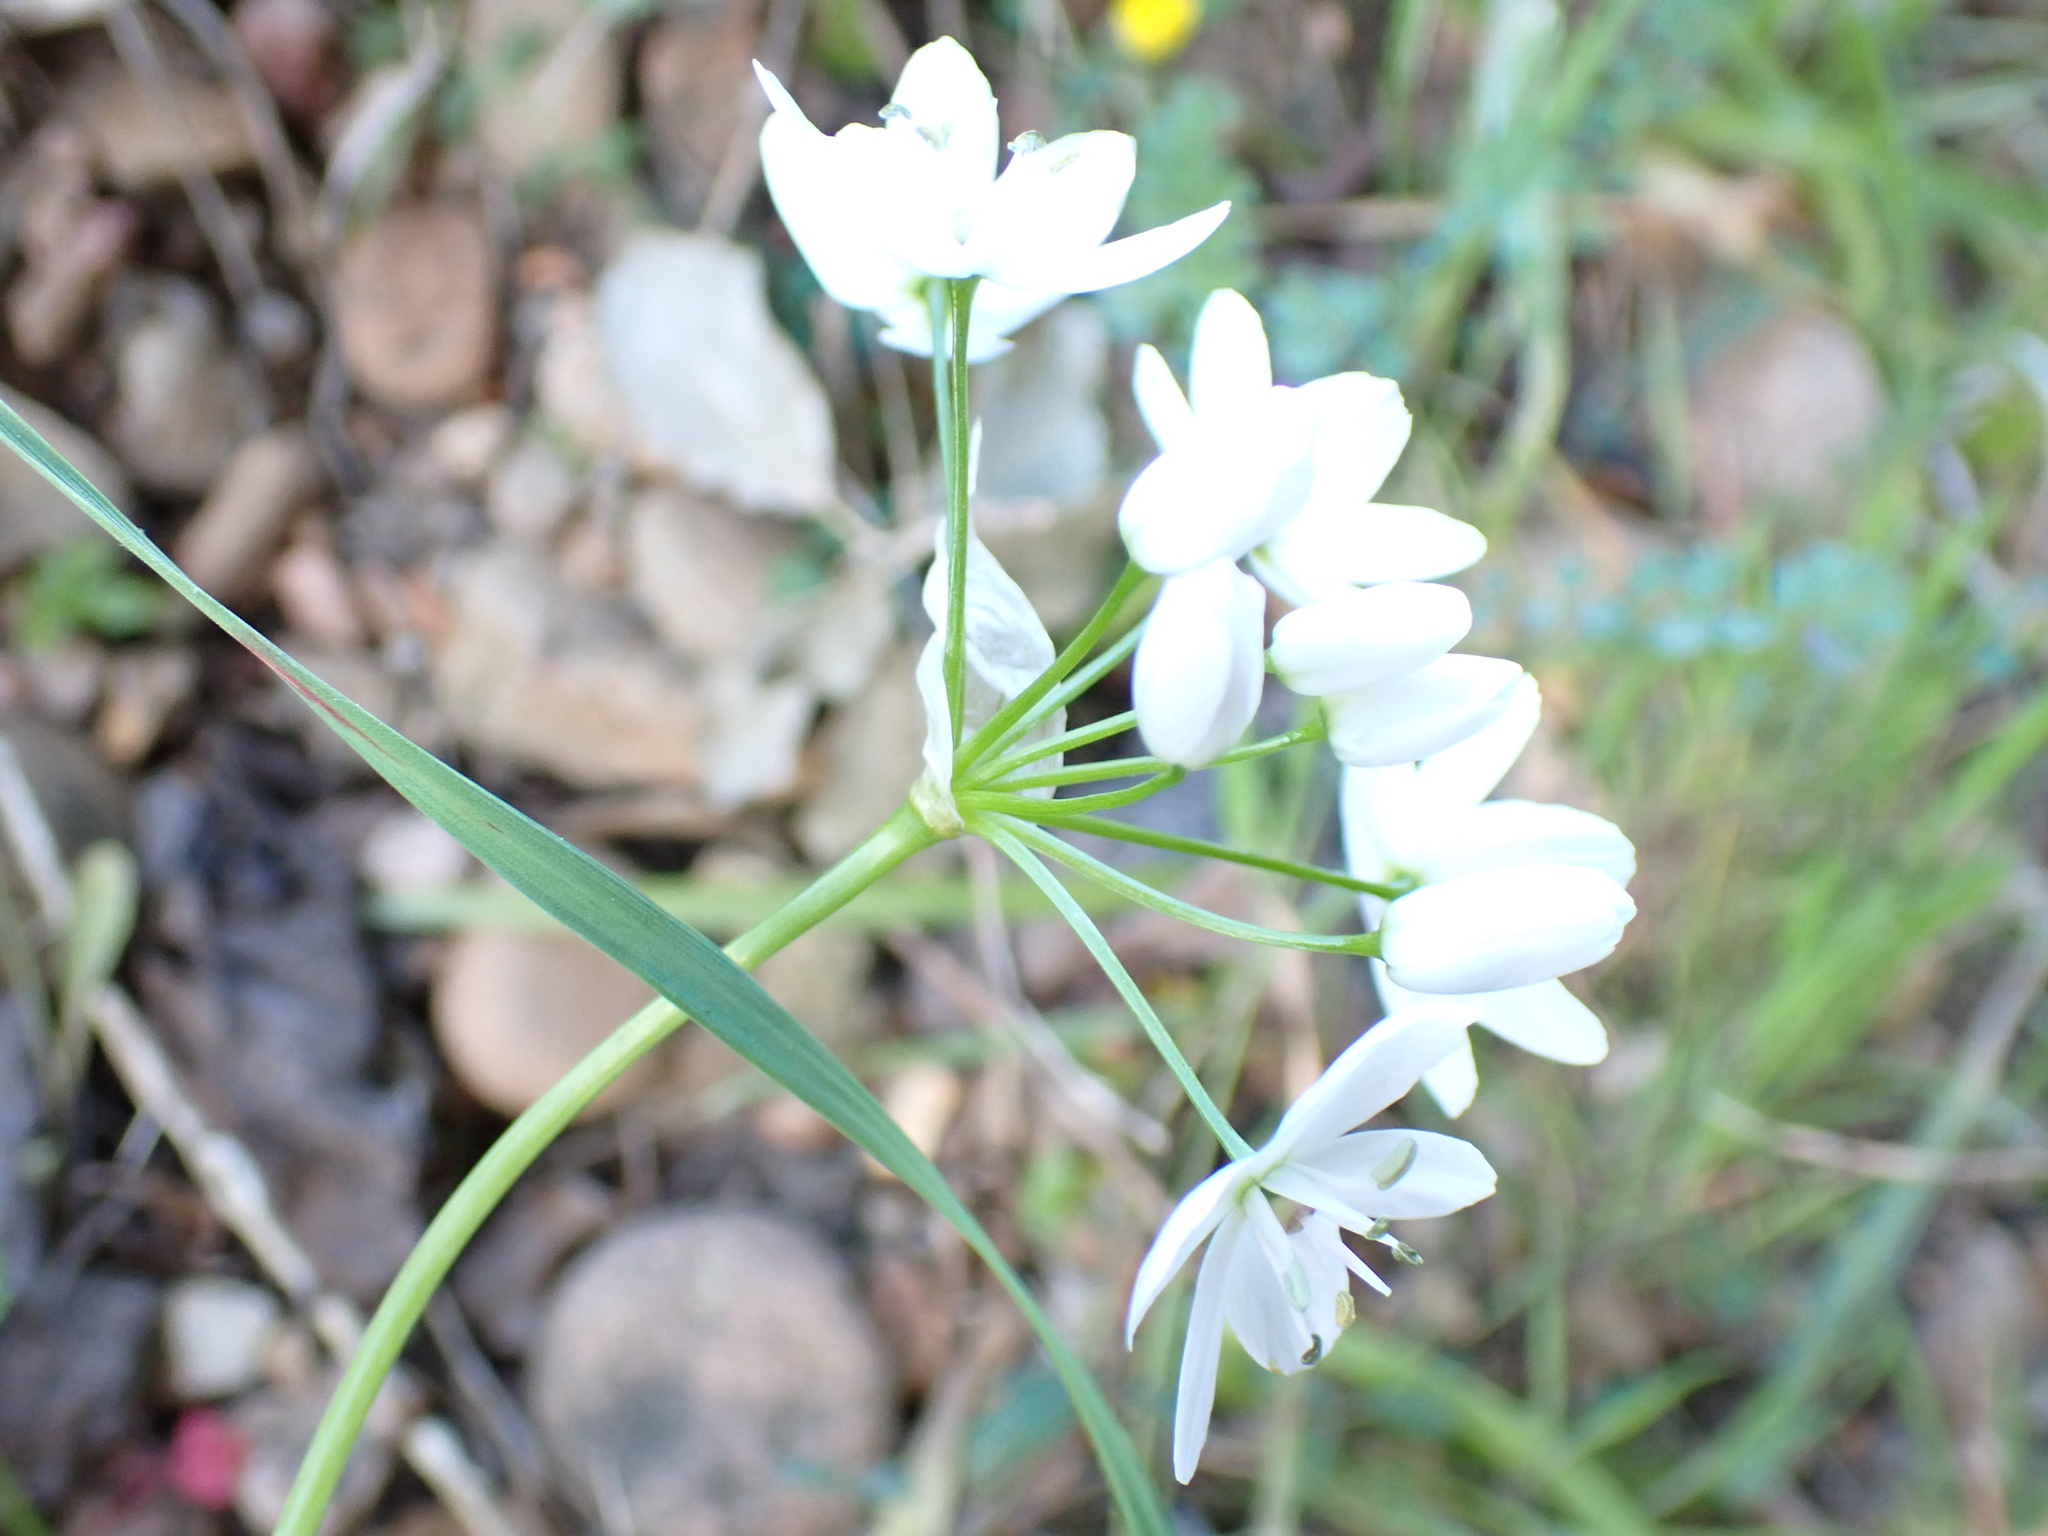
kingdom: Plantae
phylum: Tracheophyta
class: Liliopsida
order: Asparagales
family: Amaryllidaceae
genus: Allium
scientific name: Allium neapolitanum
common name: Neapolitan garlic
